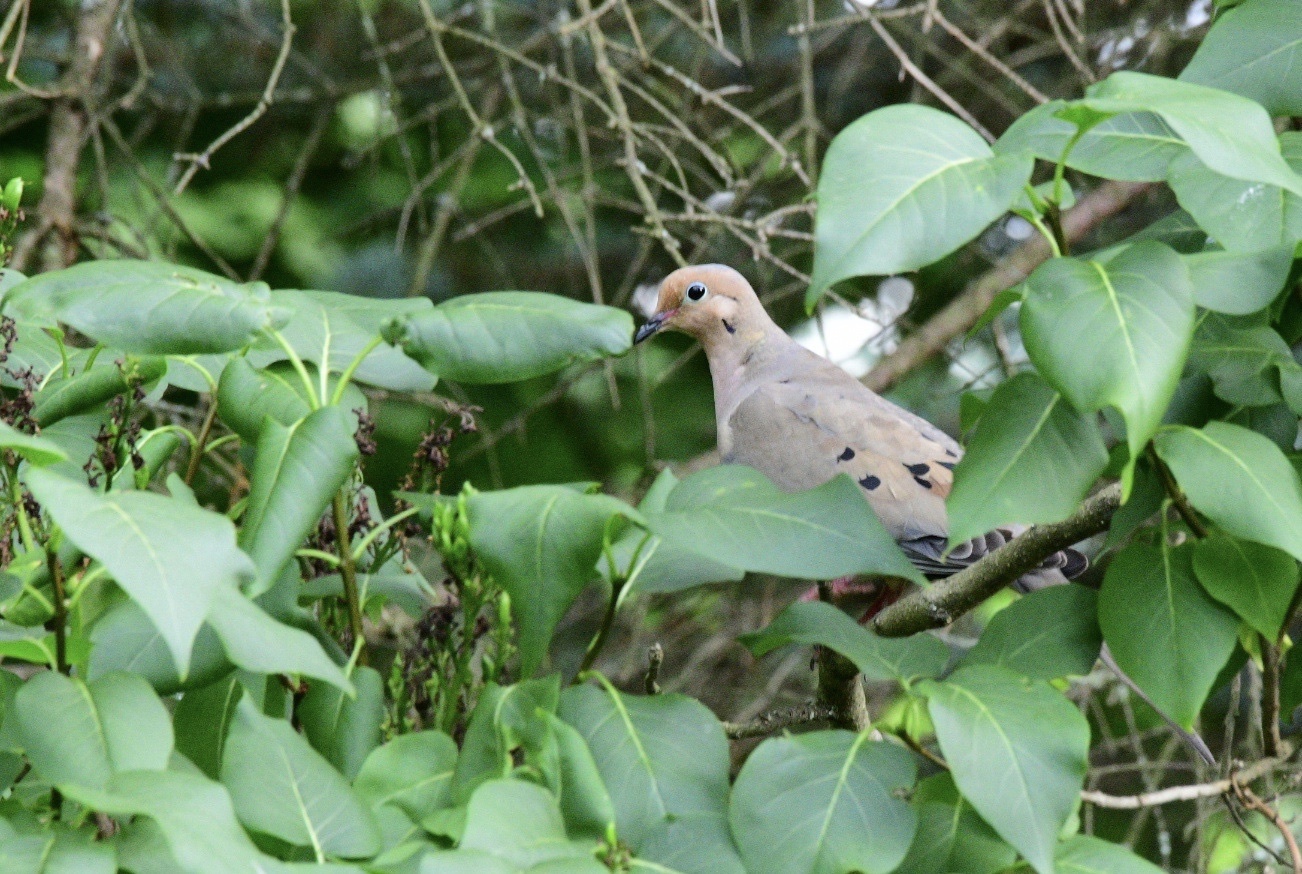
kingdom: Animalia
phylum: Chordata
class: Aves
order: Columbiformes
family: Columbidae
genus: Zenaida
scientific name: Zenaida macroura
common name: Mourning dove
